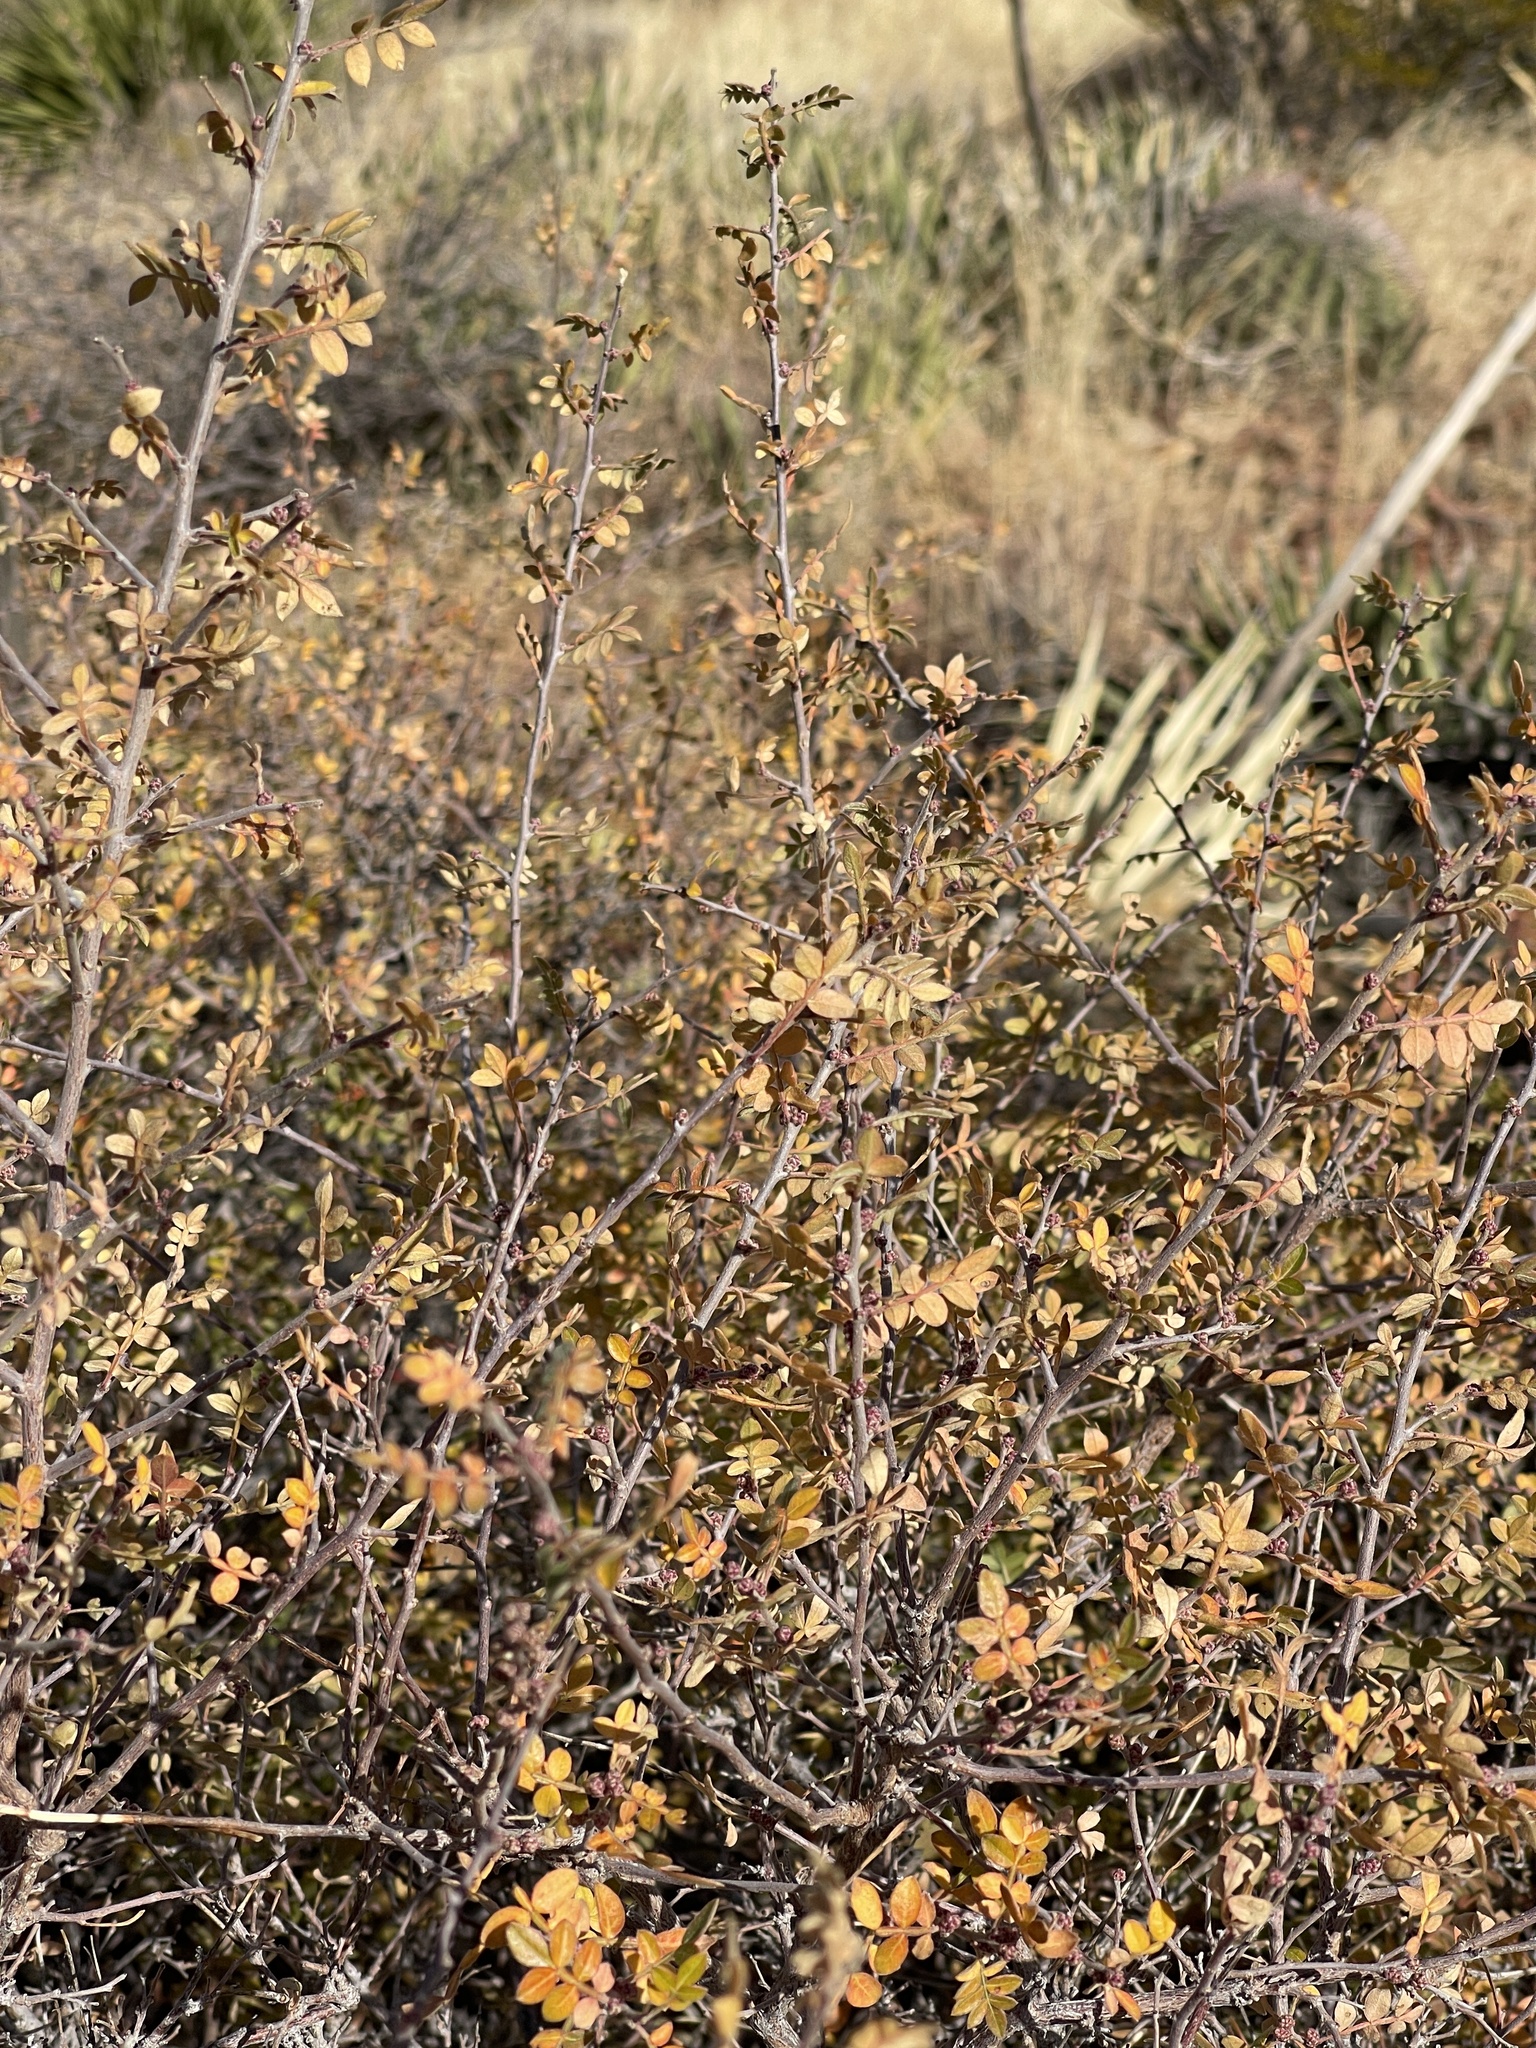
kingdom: Plantae
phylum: Tracheophyta
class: Magnoliopsida
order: Sapindales
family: Anacardiaceae
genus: Rhus
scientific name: Rhus microphylla
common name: Desert sumac
